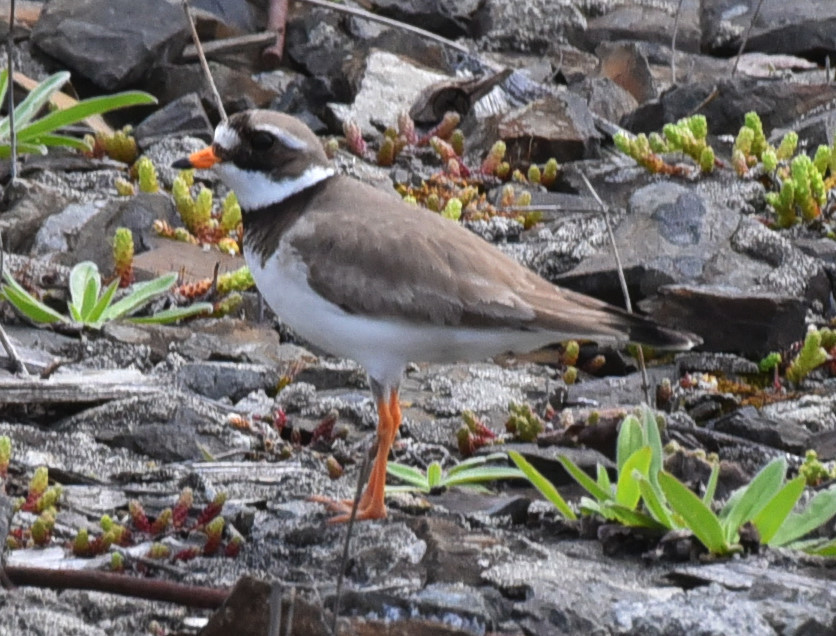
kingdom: Animalia
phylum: Chordata
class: Aves
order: Charadriiformes
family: Charadriidae
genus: Charadrius
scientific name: Charadrius hiaticula
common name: Common ringed plover
